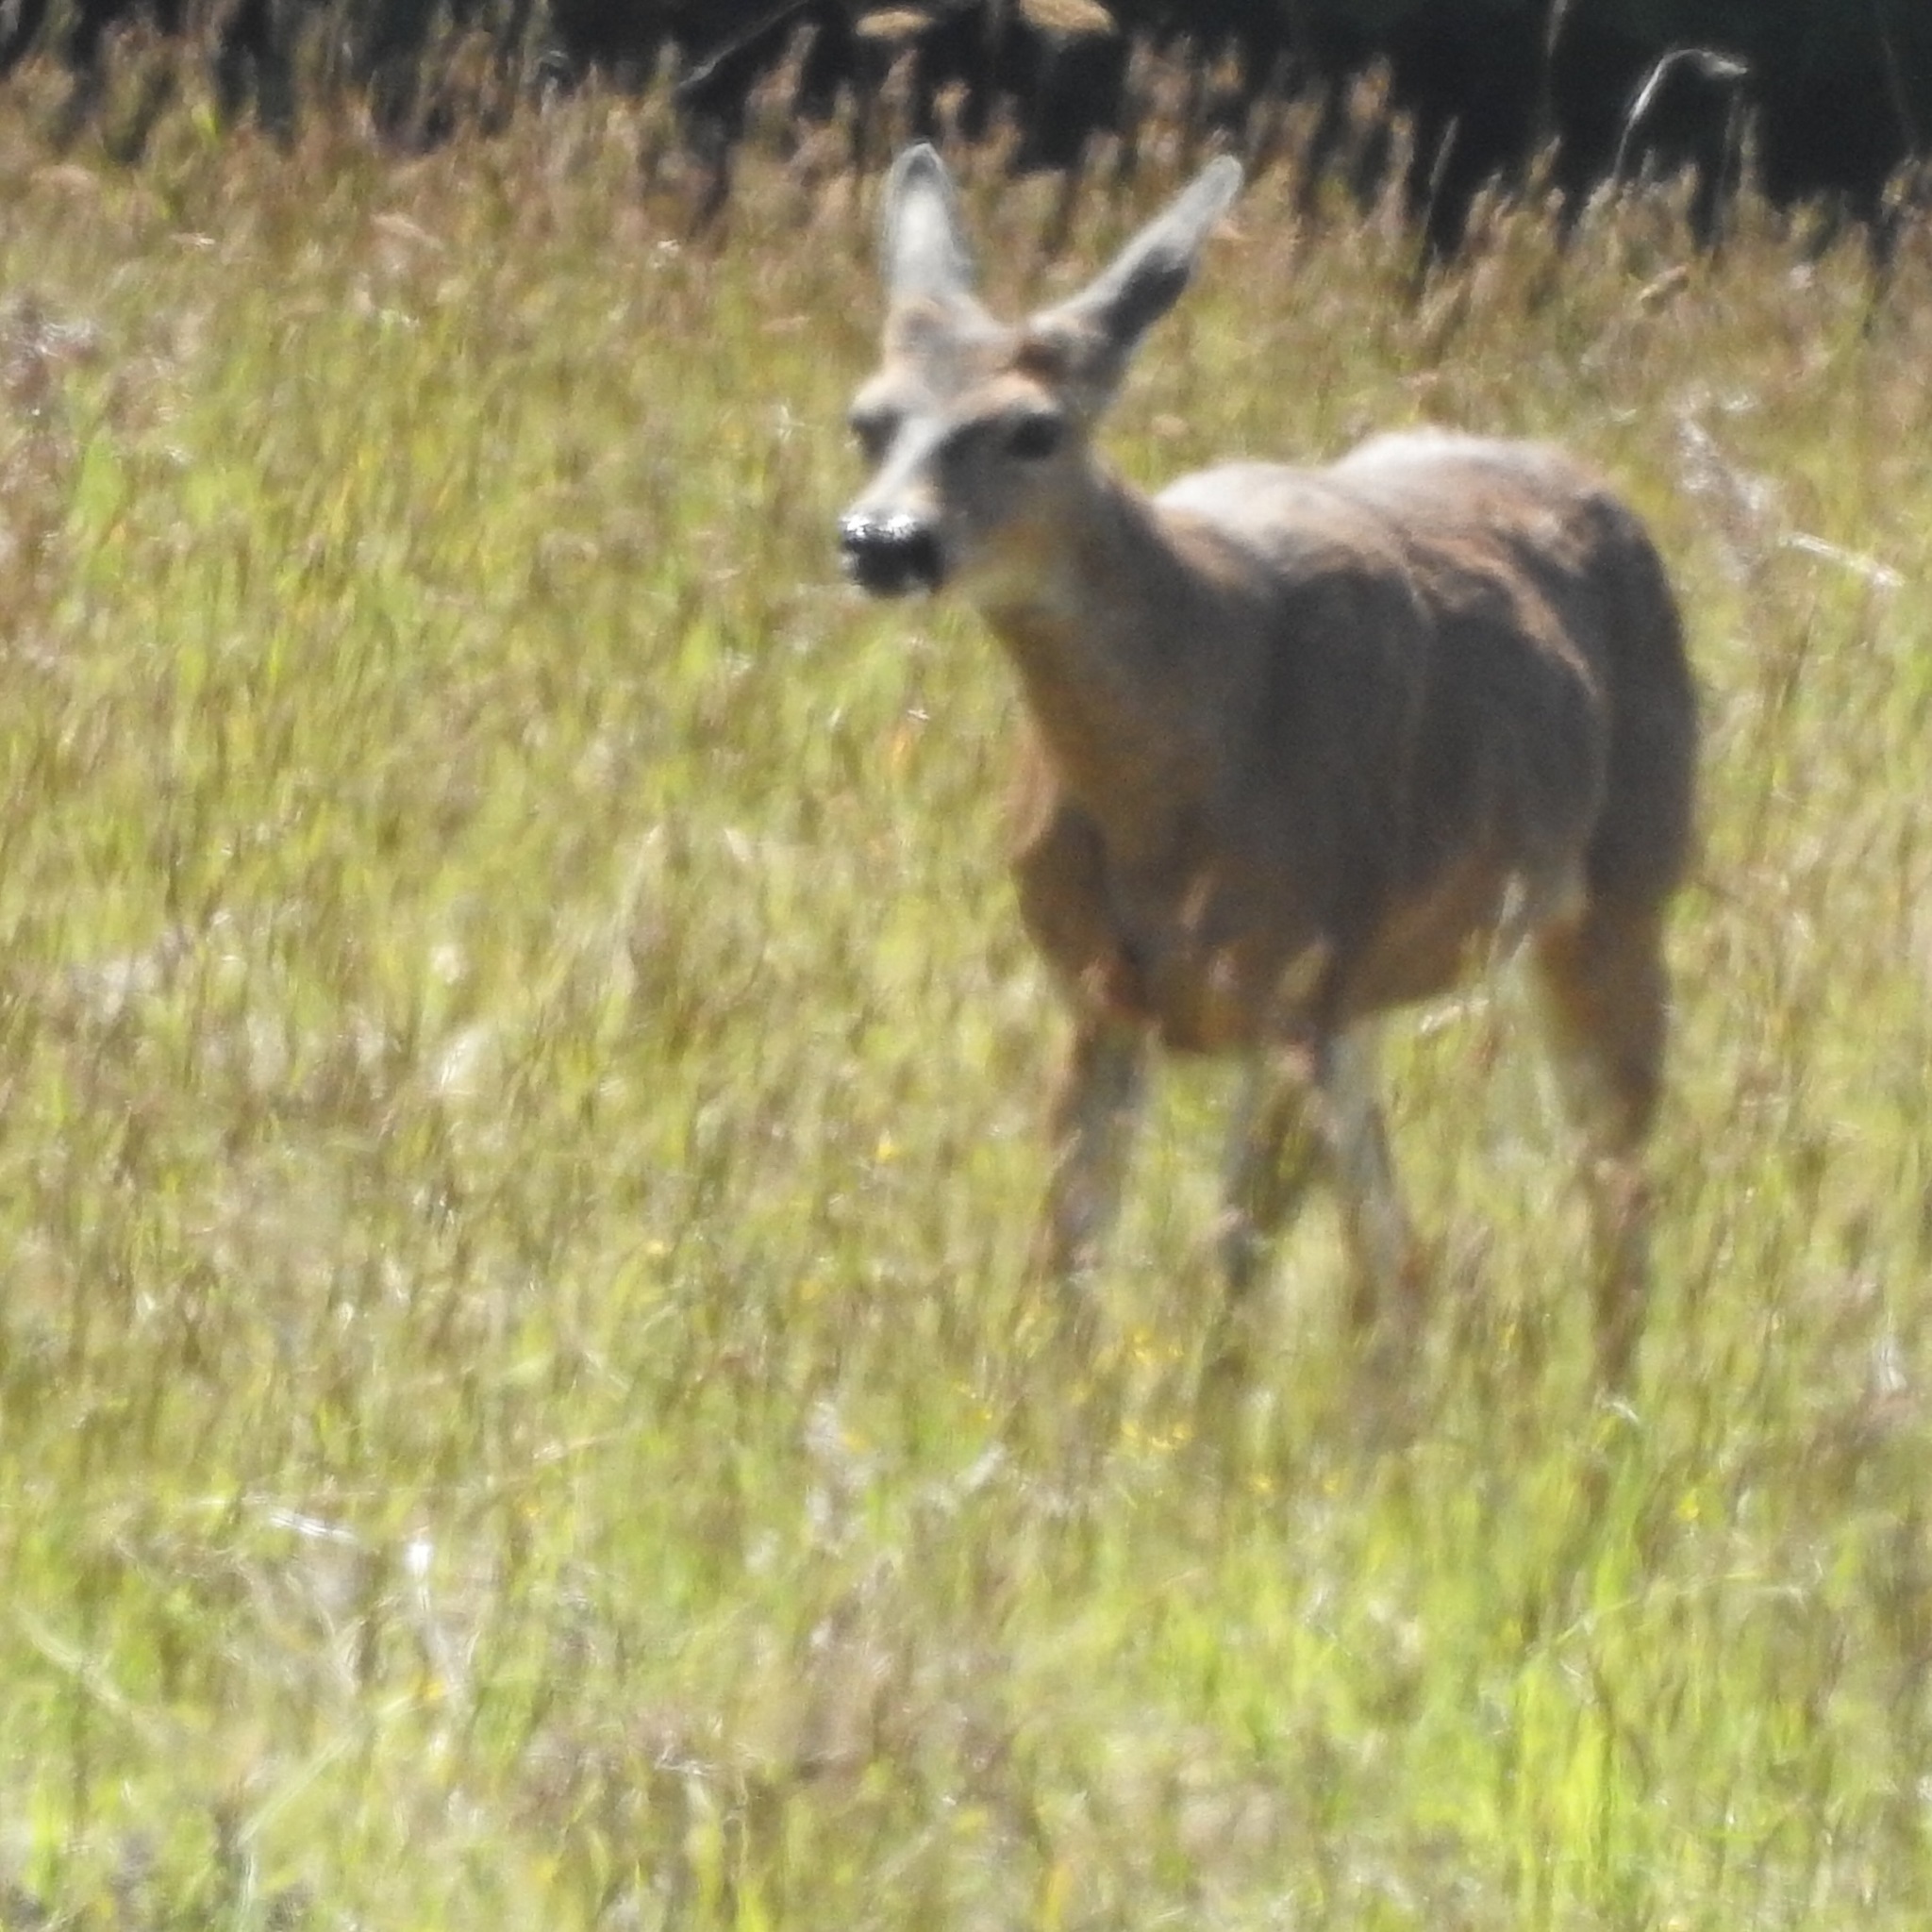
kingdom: Animalia
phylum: Chordata
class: Mammalia
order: Artiodactyla
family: Cervidae
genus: Odocoileus
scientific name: Odocoileus hemionus
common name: Mule deer
